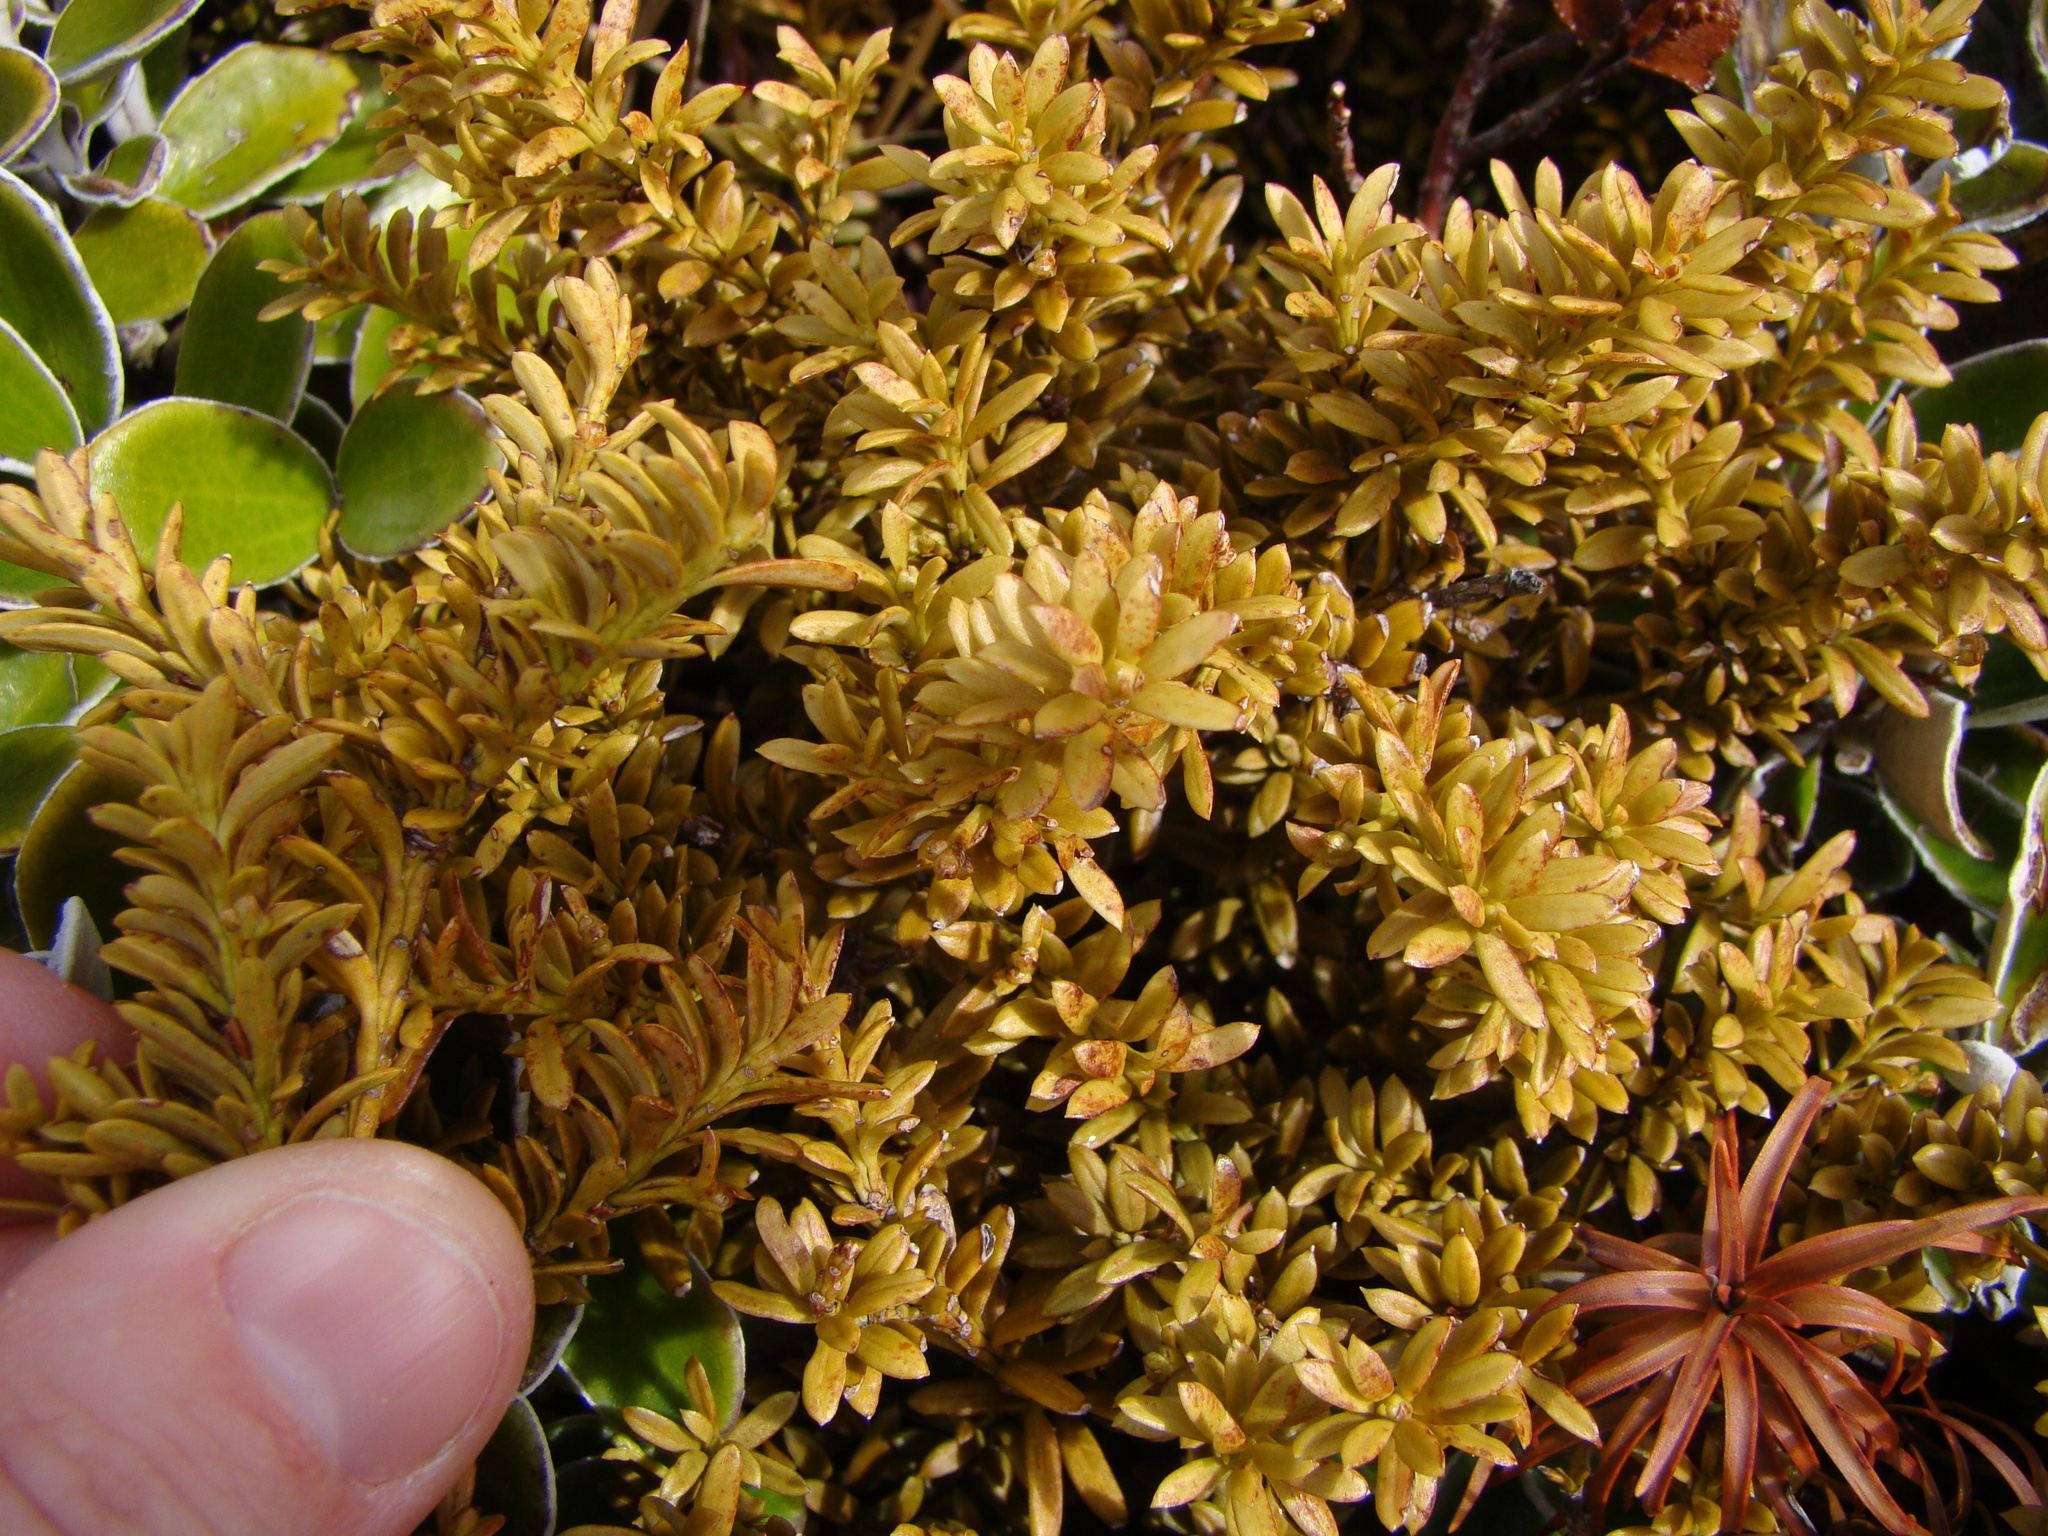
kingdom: Plantae
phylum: Tracheophyta
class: Pinopsida
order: Pinales
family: Podocarpaceae
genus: Podocarpus
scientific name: Podocarpus nivalis
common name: Alpine totara
